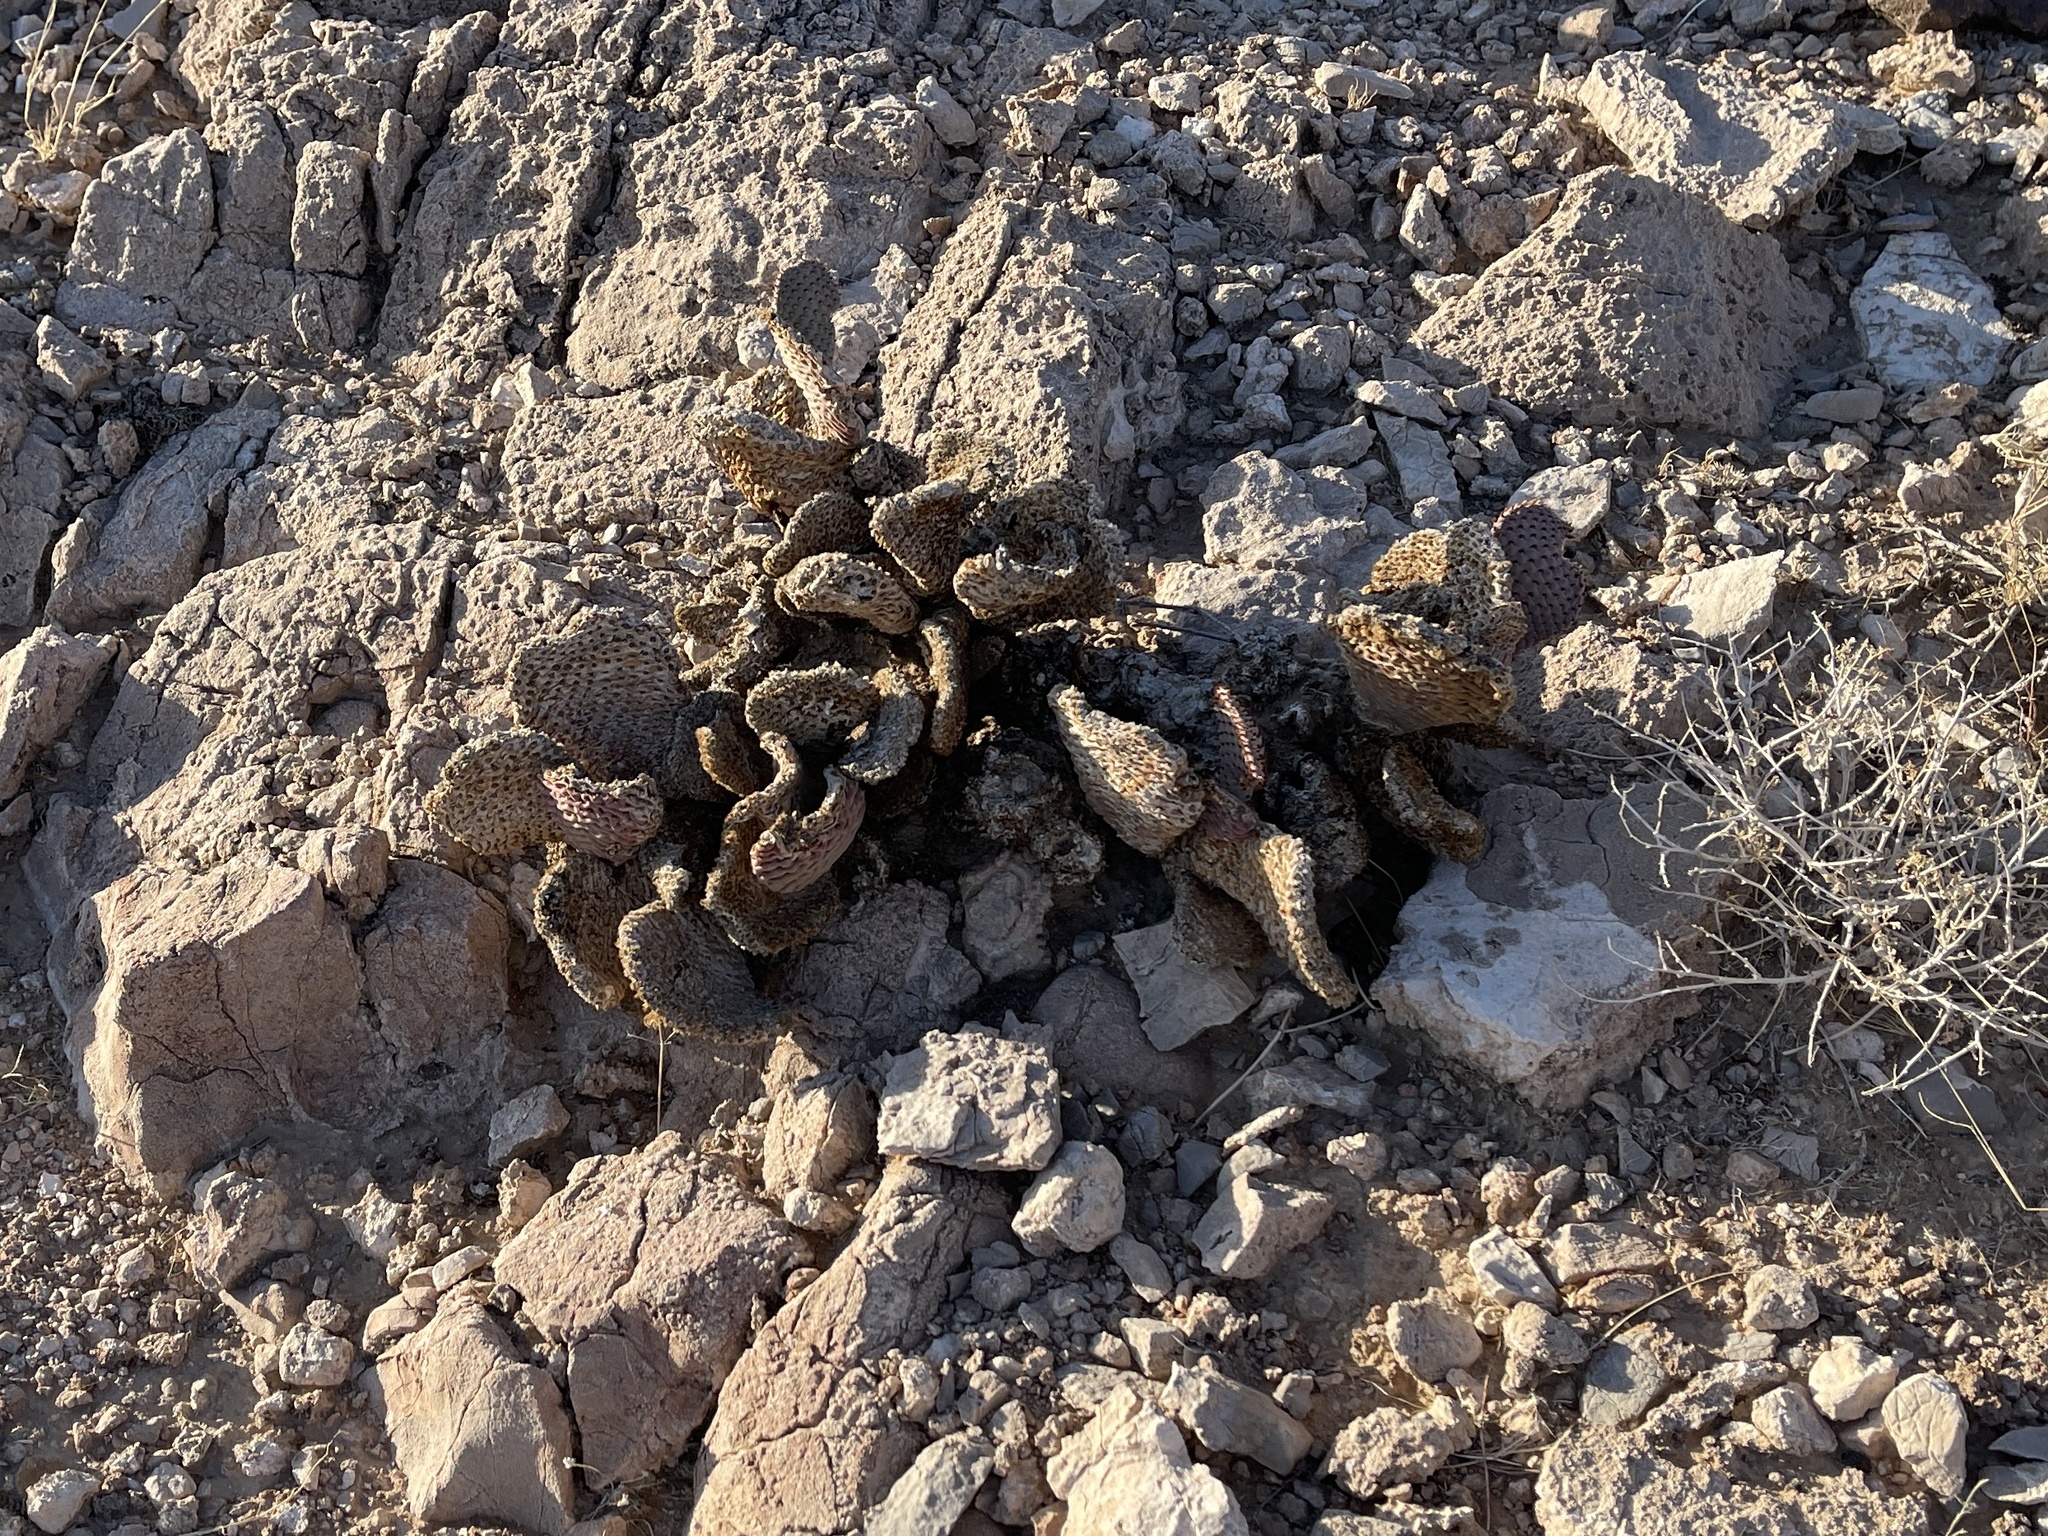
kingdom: Plantae
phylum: Tracheophyta
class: Magnoliopsida
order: Caryophyllales
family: Cactaceae
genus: Opuntia
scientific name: Opuntia basilaris
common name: Beavertail prickly-pear
